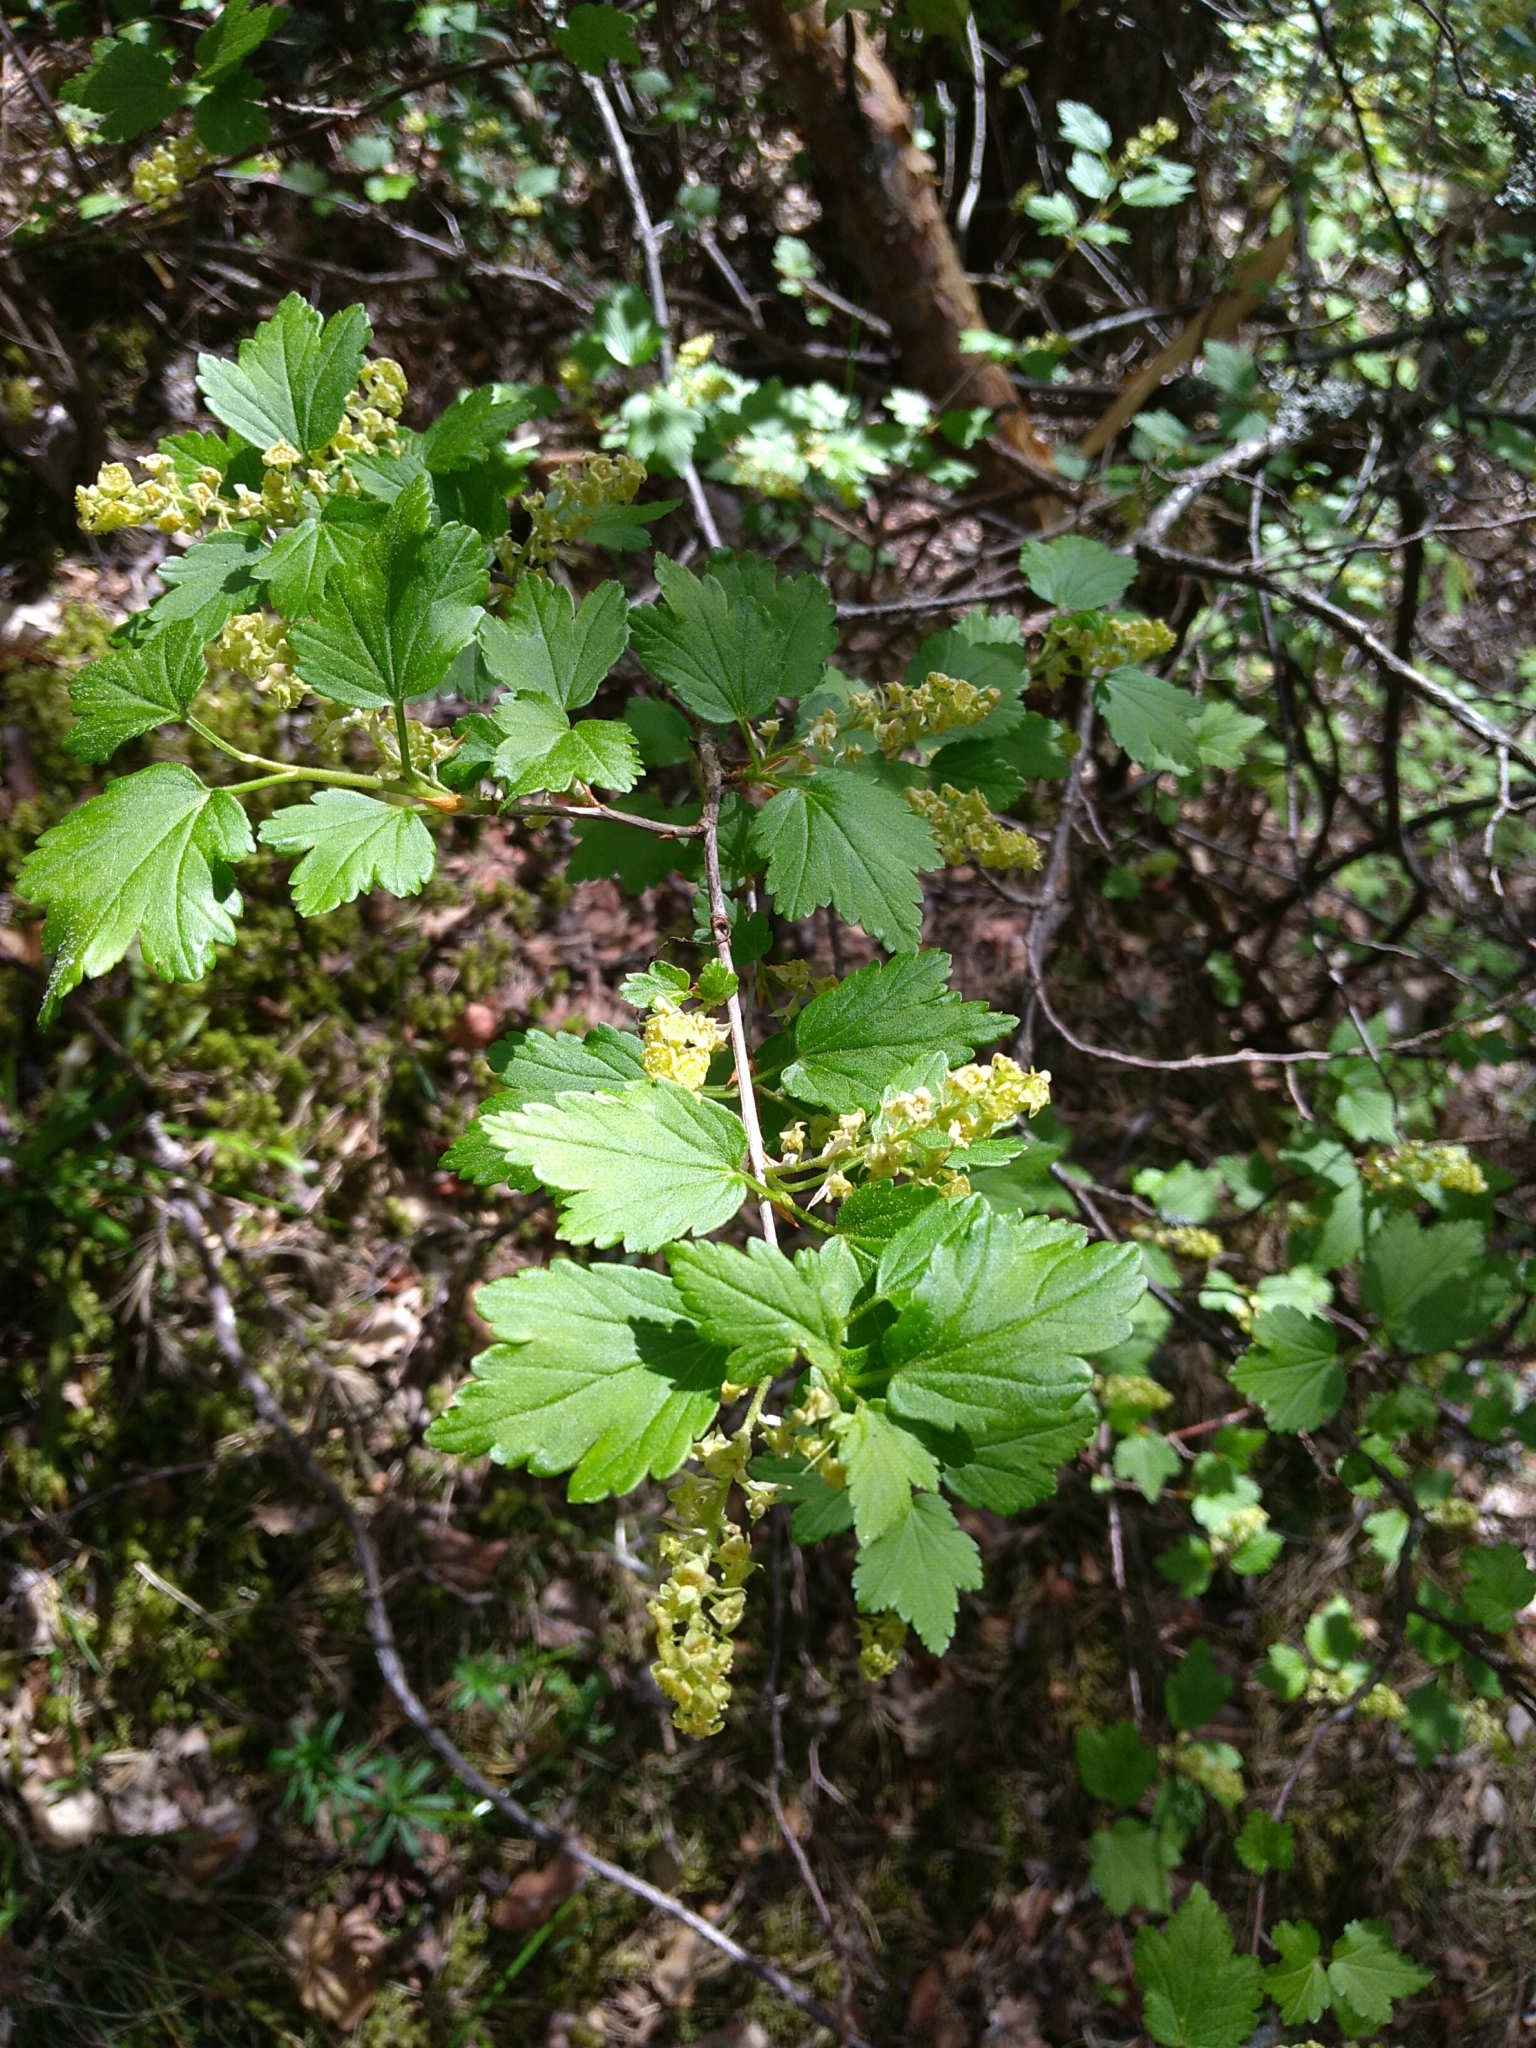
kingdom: Plantae
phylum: Tracheophyta
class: Magnoliopsida
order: Saxifragales
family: Grossulariaceae
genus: Ribes
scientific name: Ribes alpinum
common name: Alpine currant
